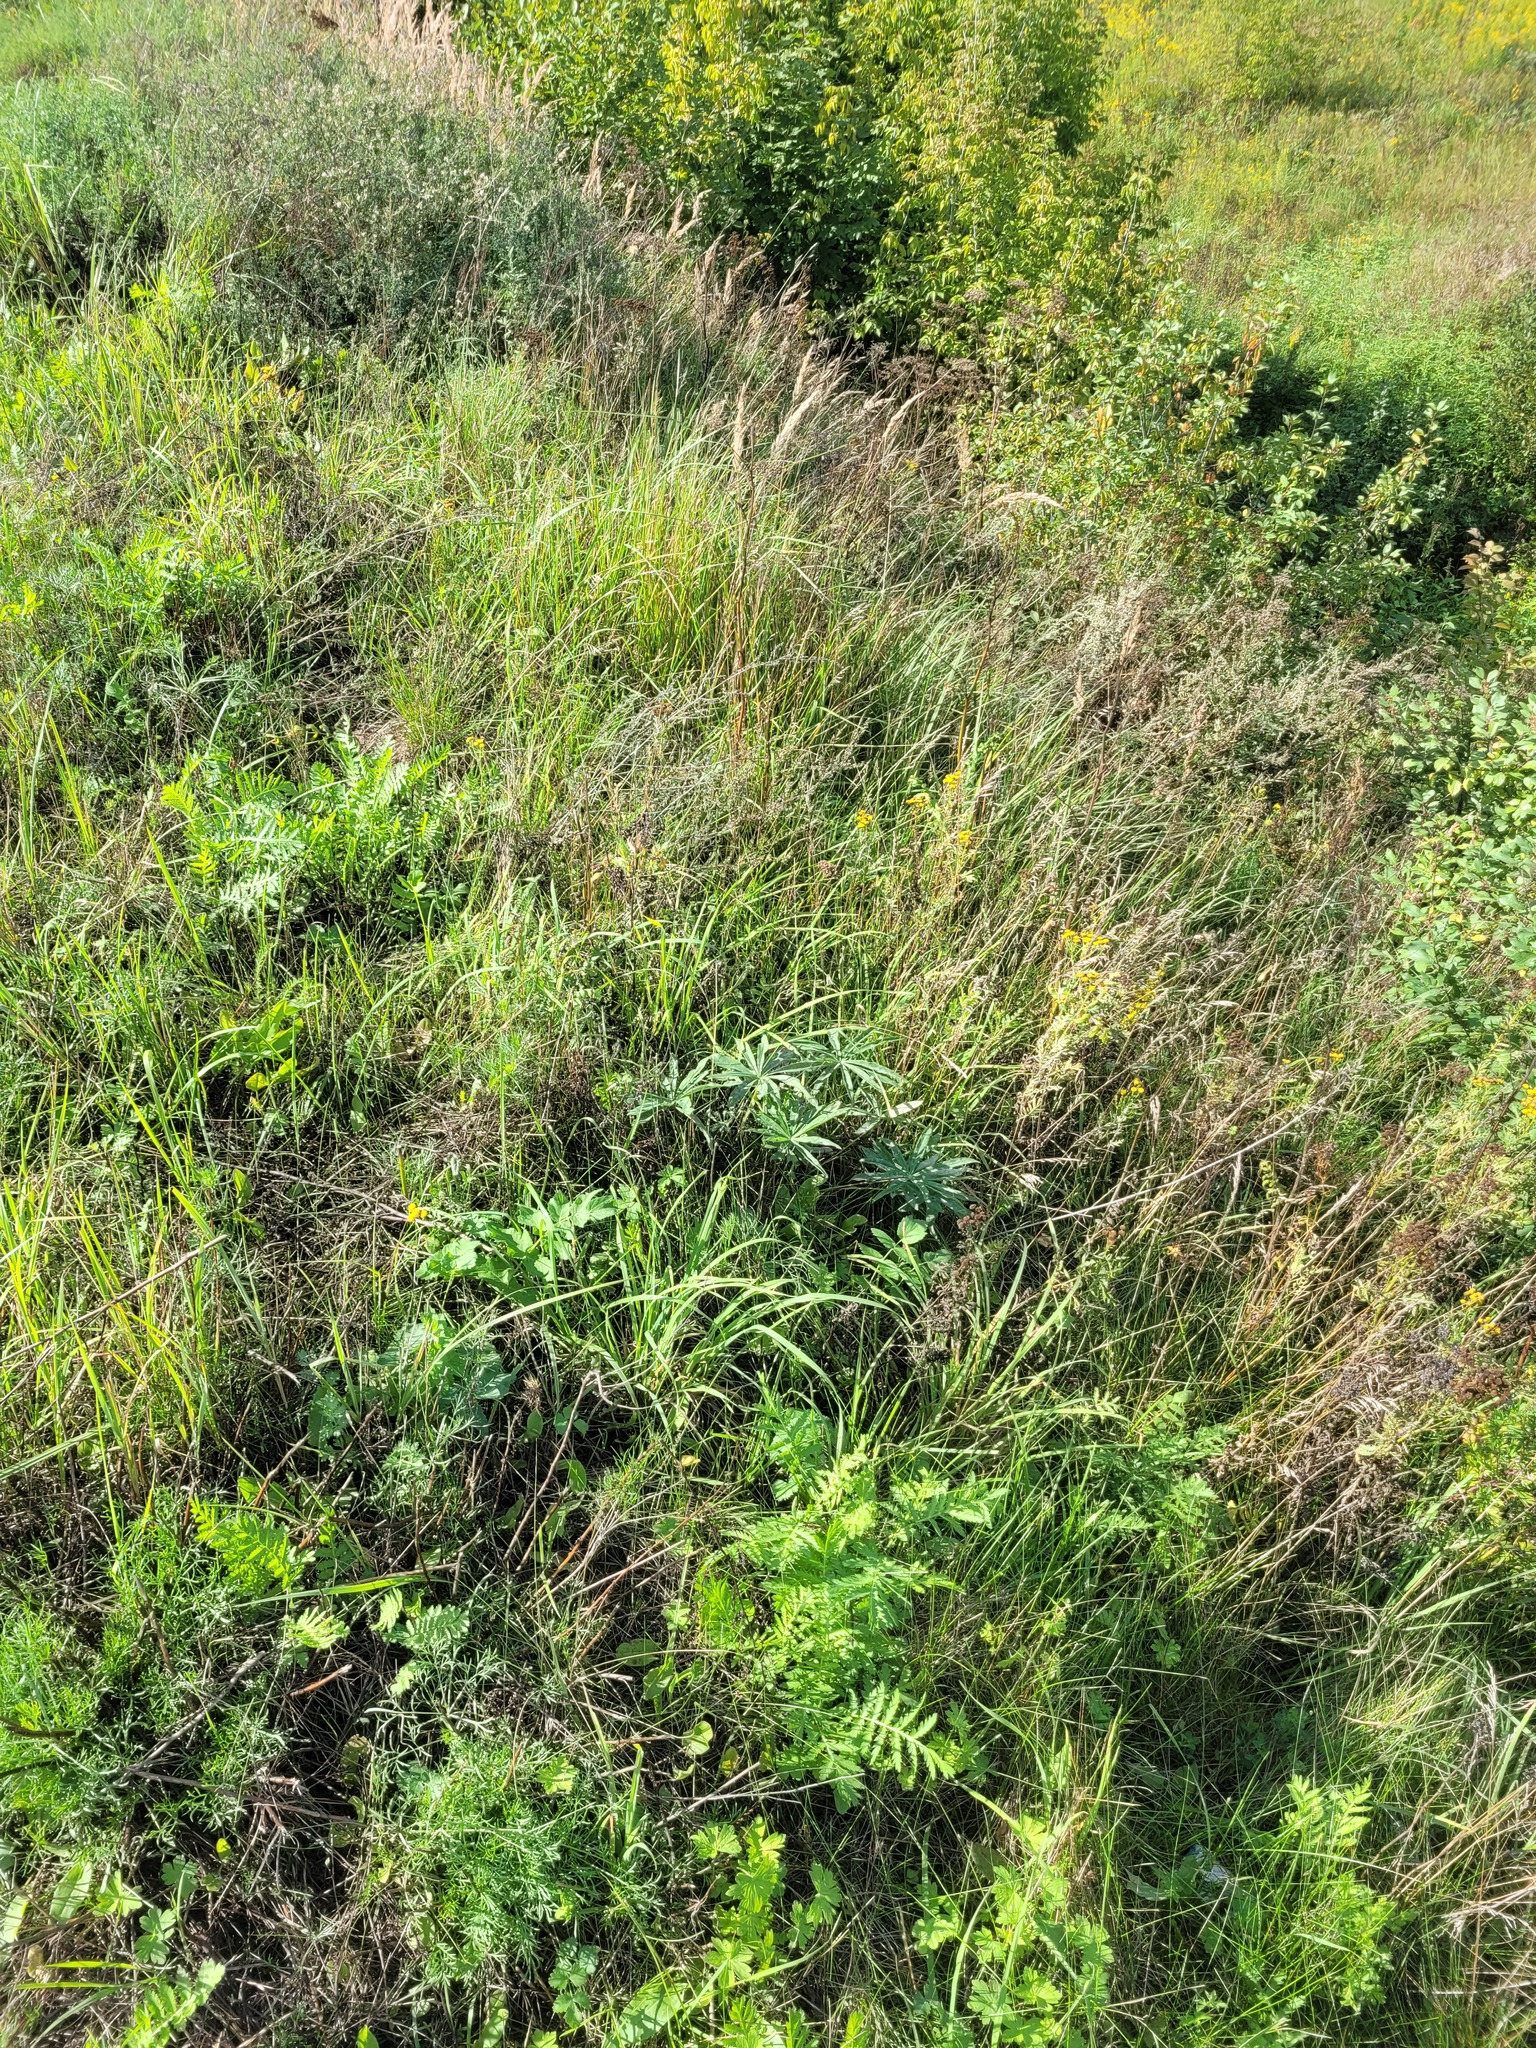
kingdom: Plantae
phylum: Tracheophyta
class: Magnoliopsida
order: Fabales
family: Fabaceae
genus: Lupinus
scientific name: Lupinus polyphyllus
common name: Garden lupin
